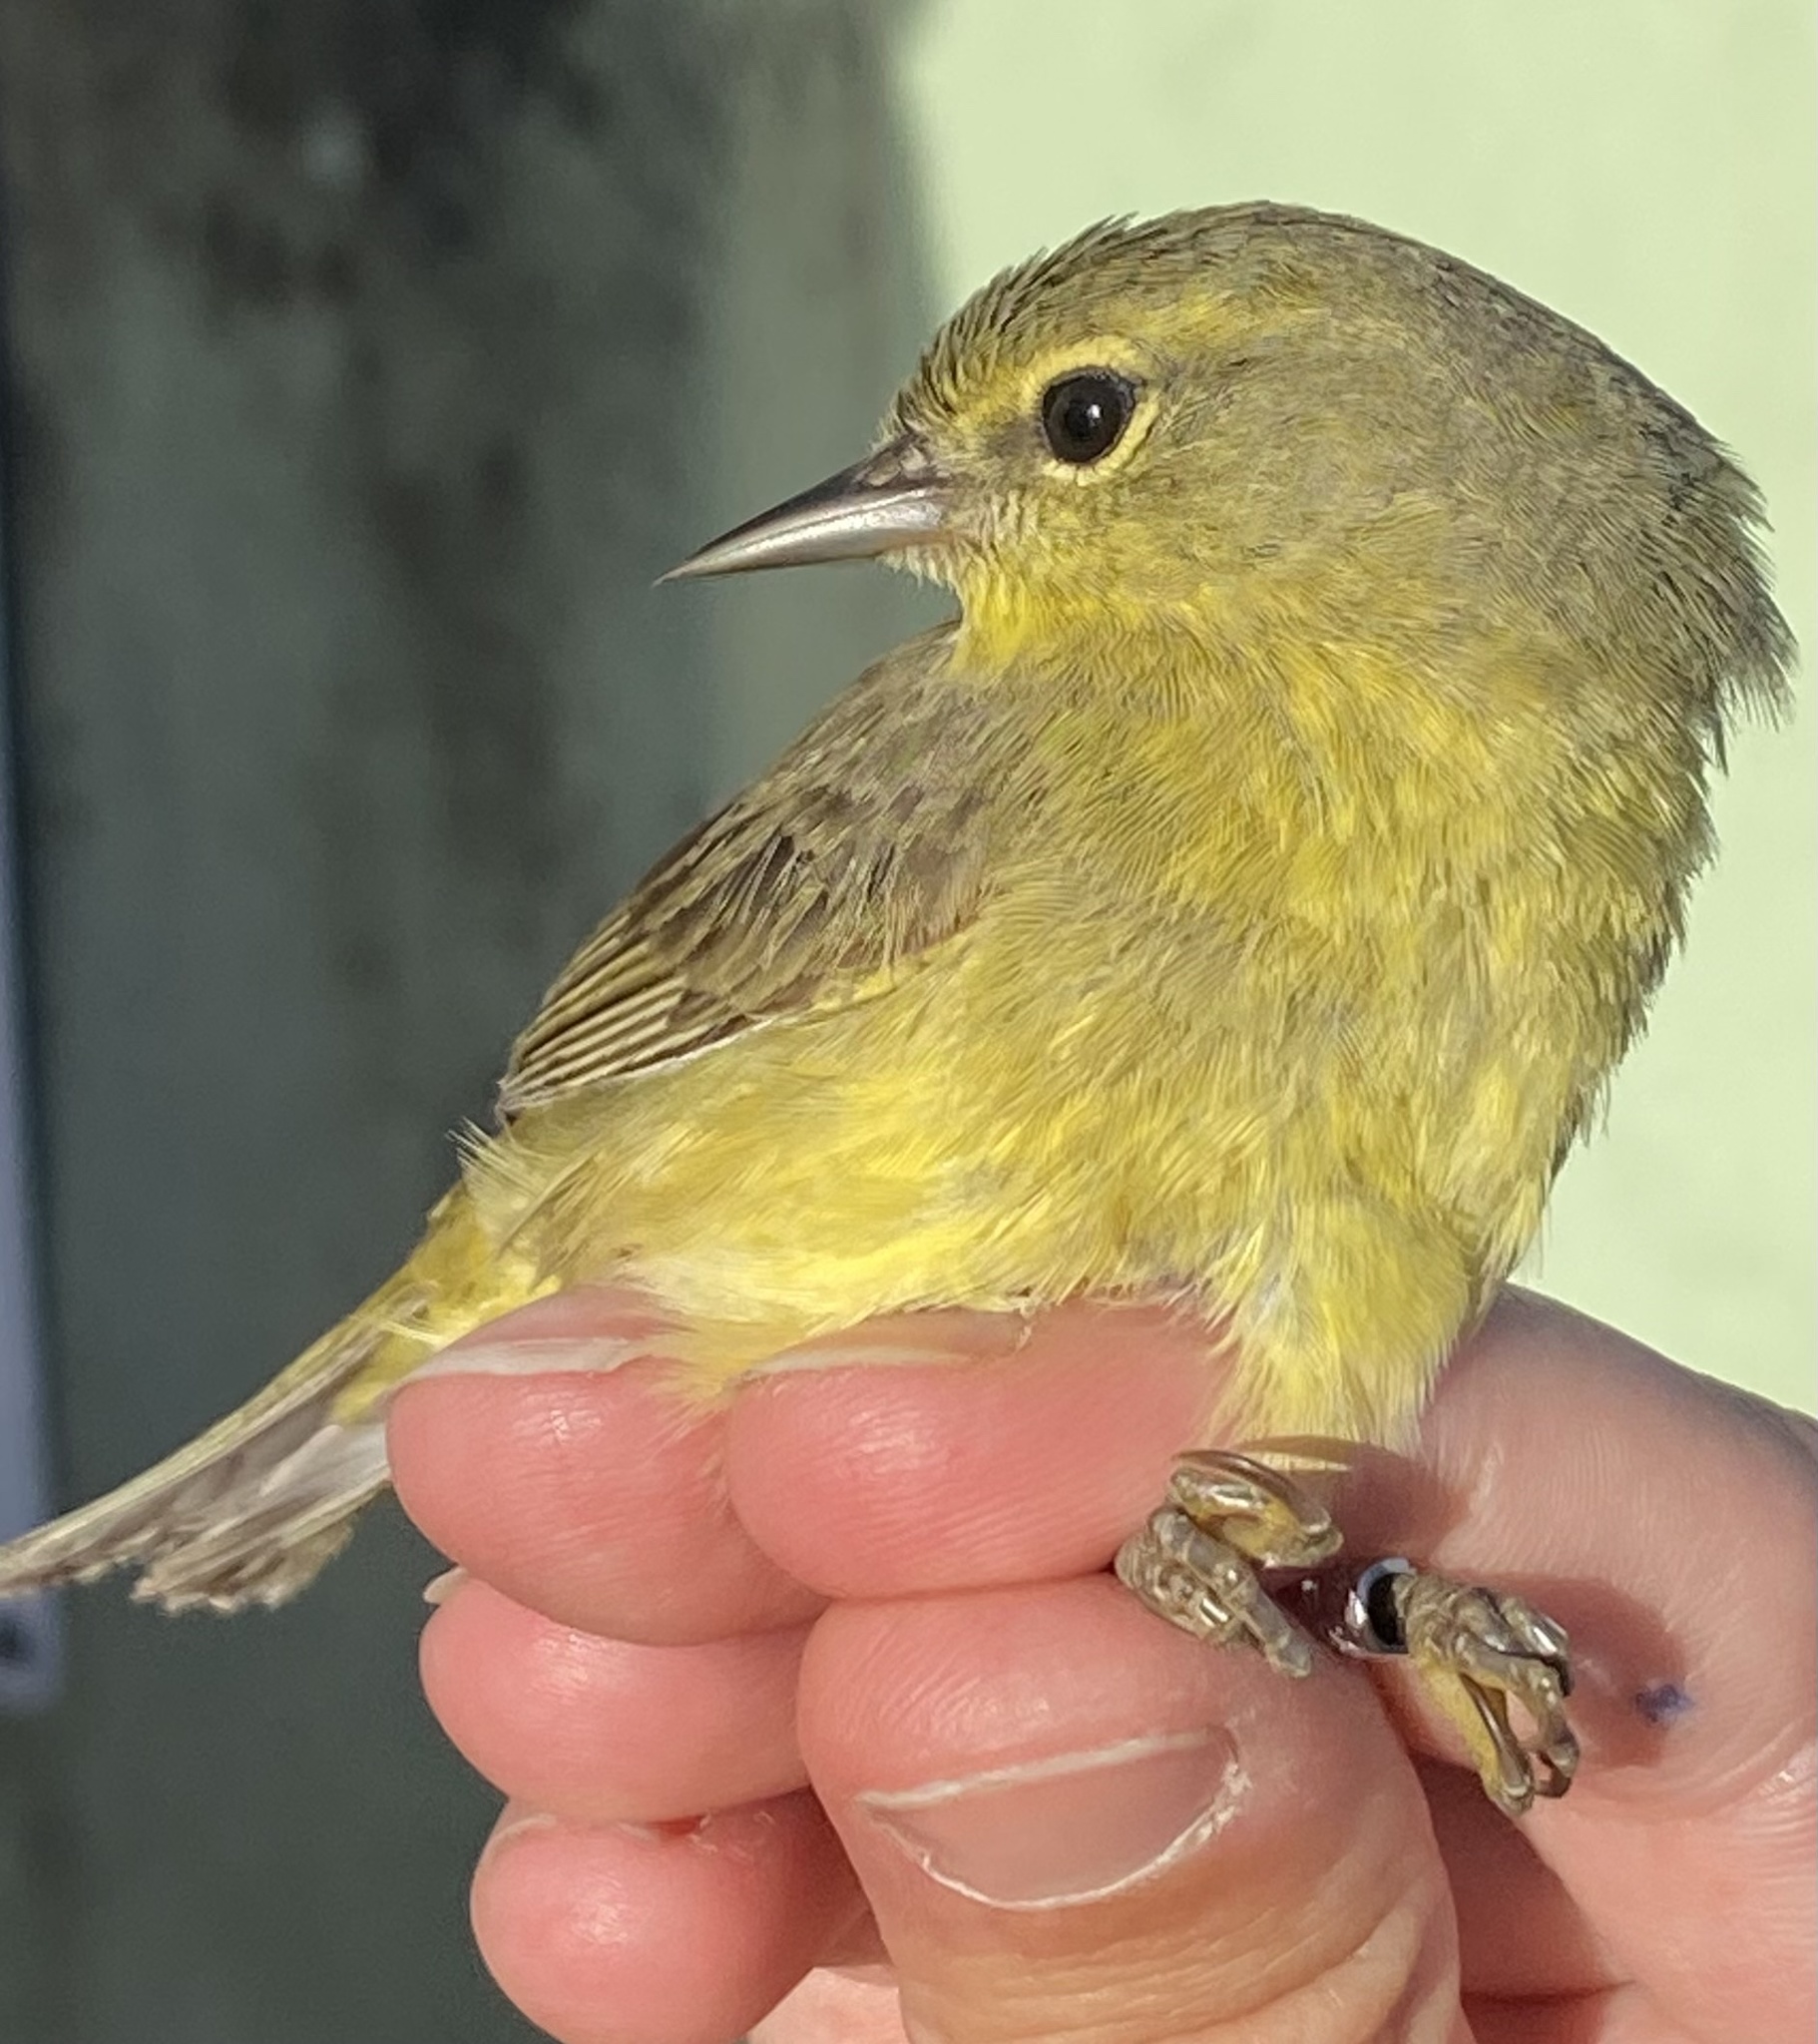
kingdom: Animalia
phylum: Chordata
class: Aves
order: Passeriformes
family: Parulidae
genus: Leiothlypis
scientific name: Leiothlypis celata
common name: Orange-crowned warbler
